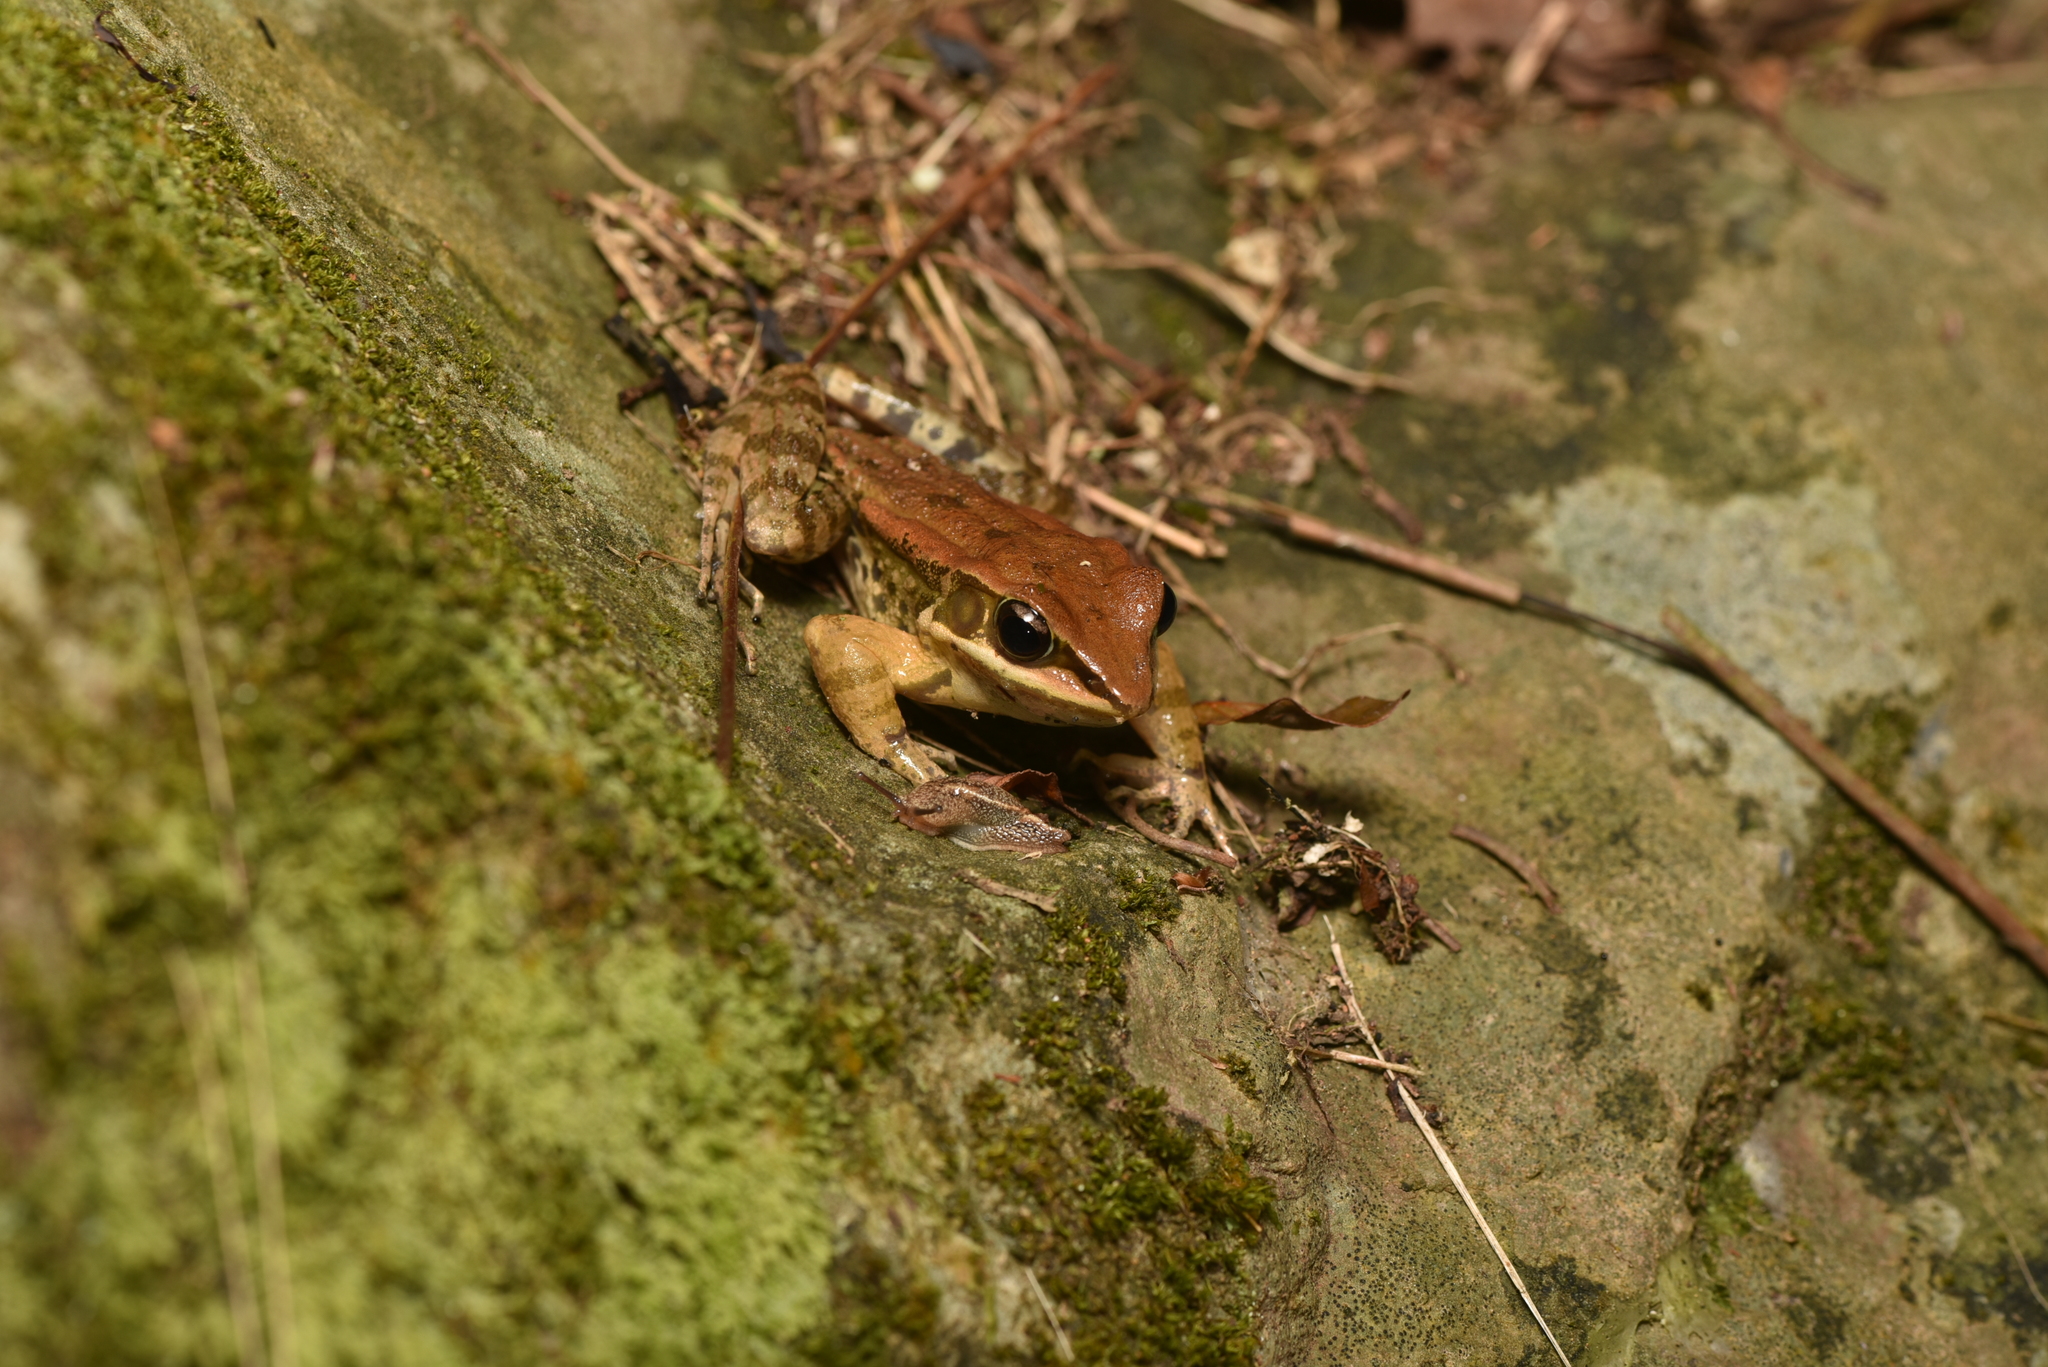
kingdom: Animalia
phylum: Chordata
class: Amphibia
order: Anura
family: Ranidae
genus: Hylarana
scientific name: Hylarana latouchii
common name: Broad-folded frog
